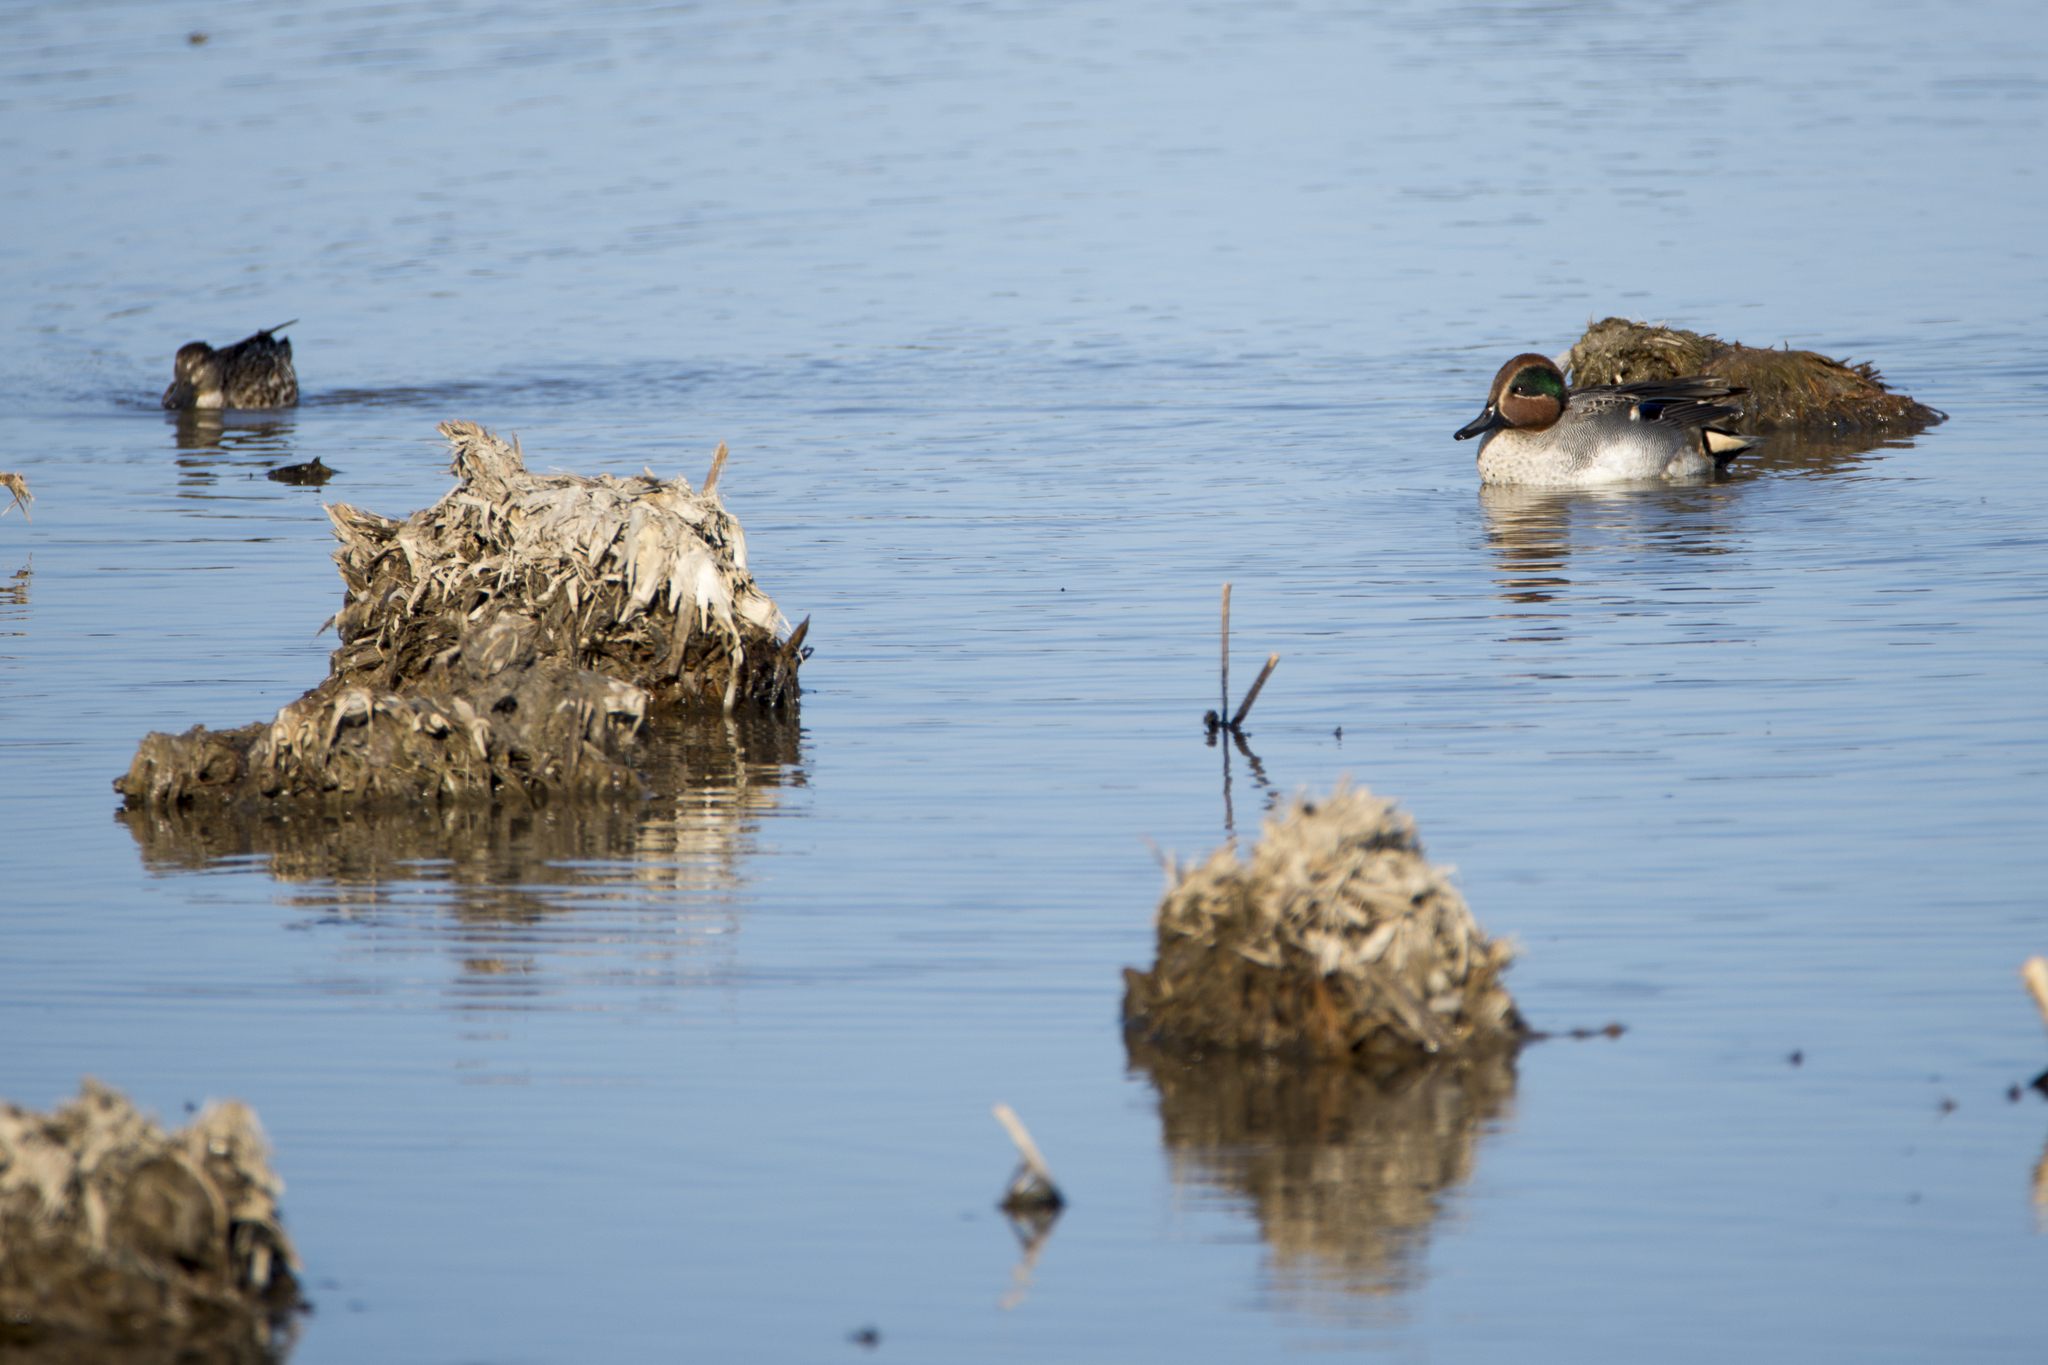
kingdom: Animalia
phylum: Chordata
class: Aves
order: Anseriformes
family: Anatidae
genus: Anas
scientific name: Anas crecca
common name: Eurasian teal
